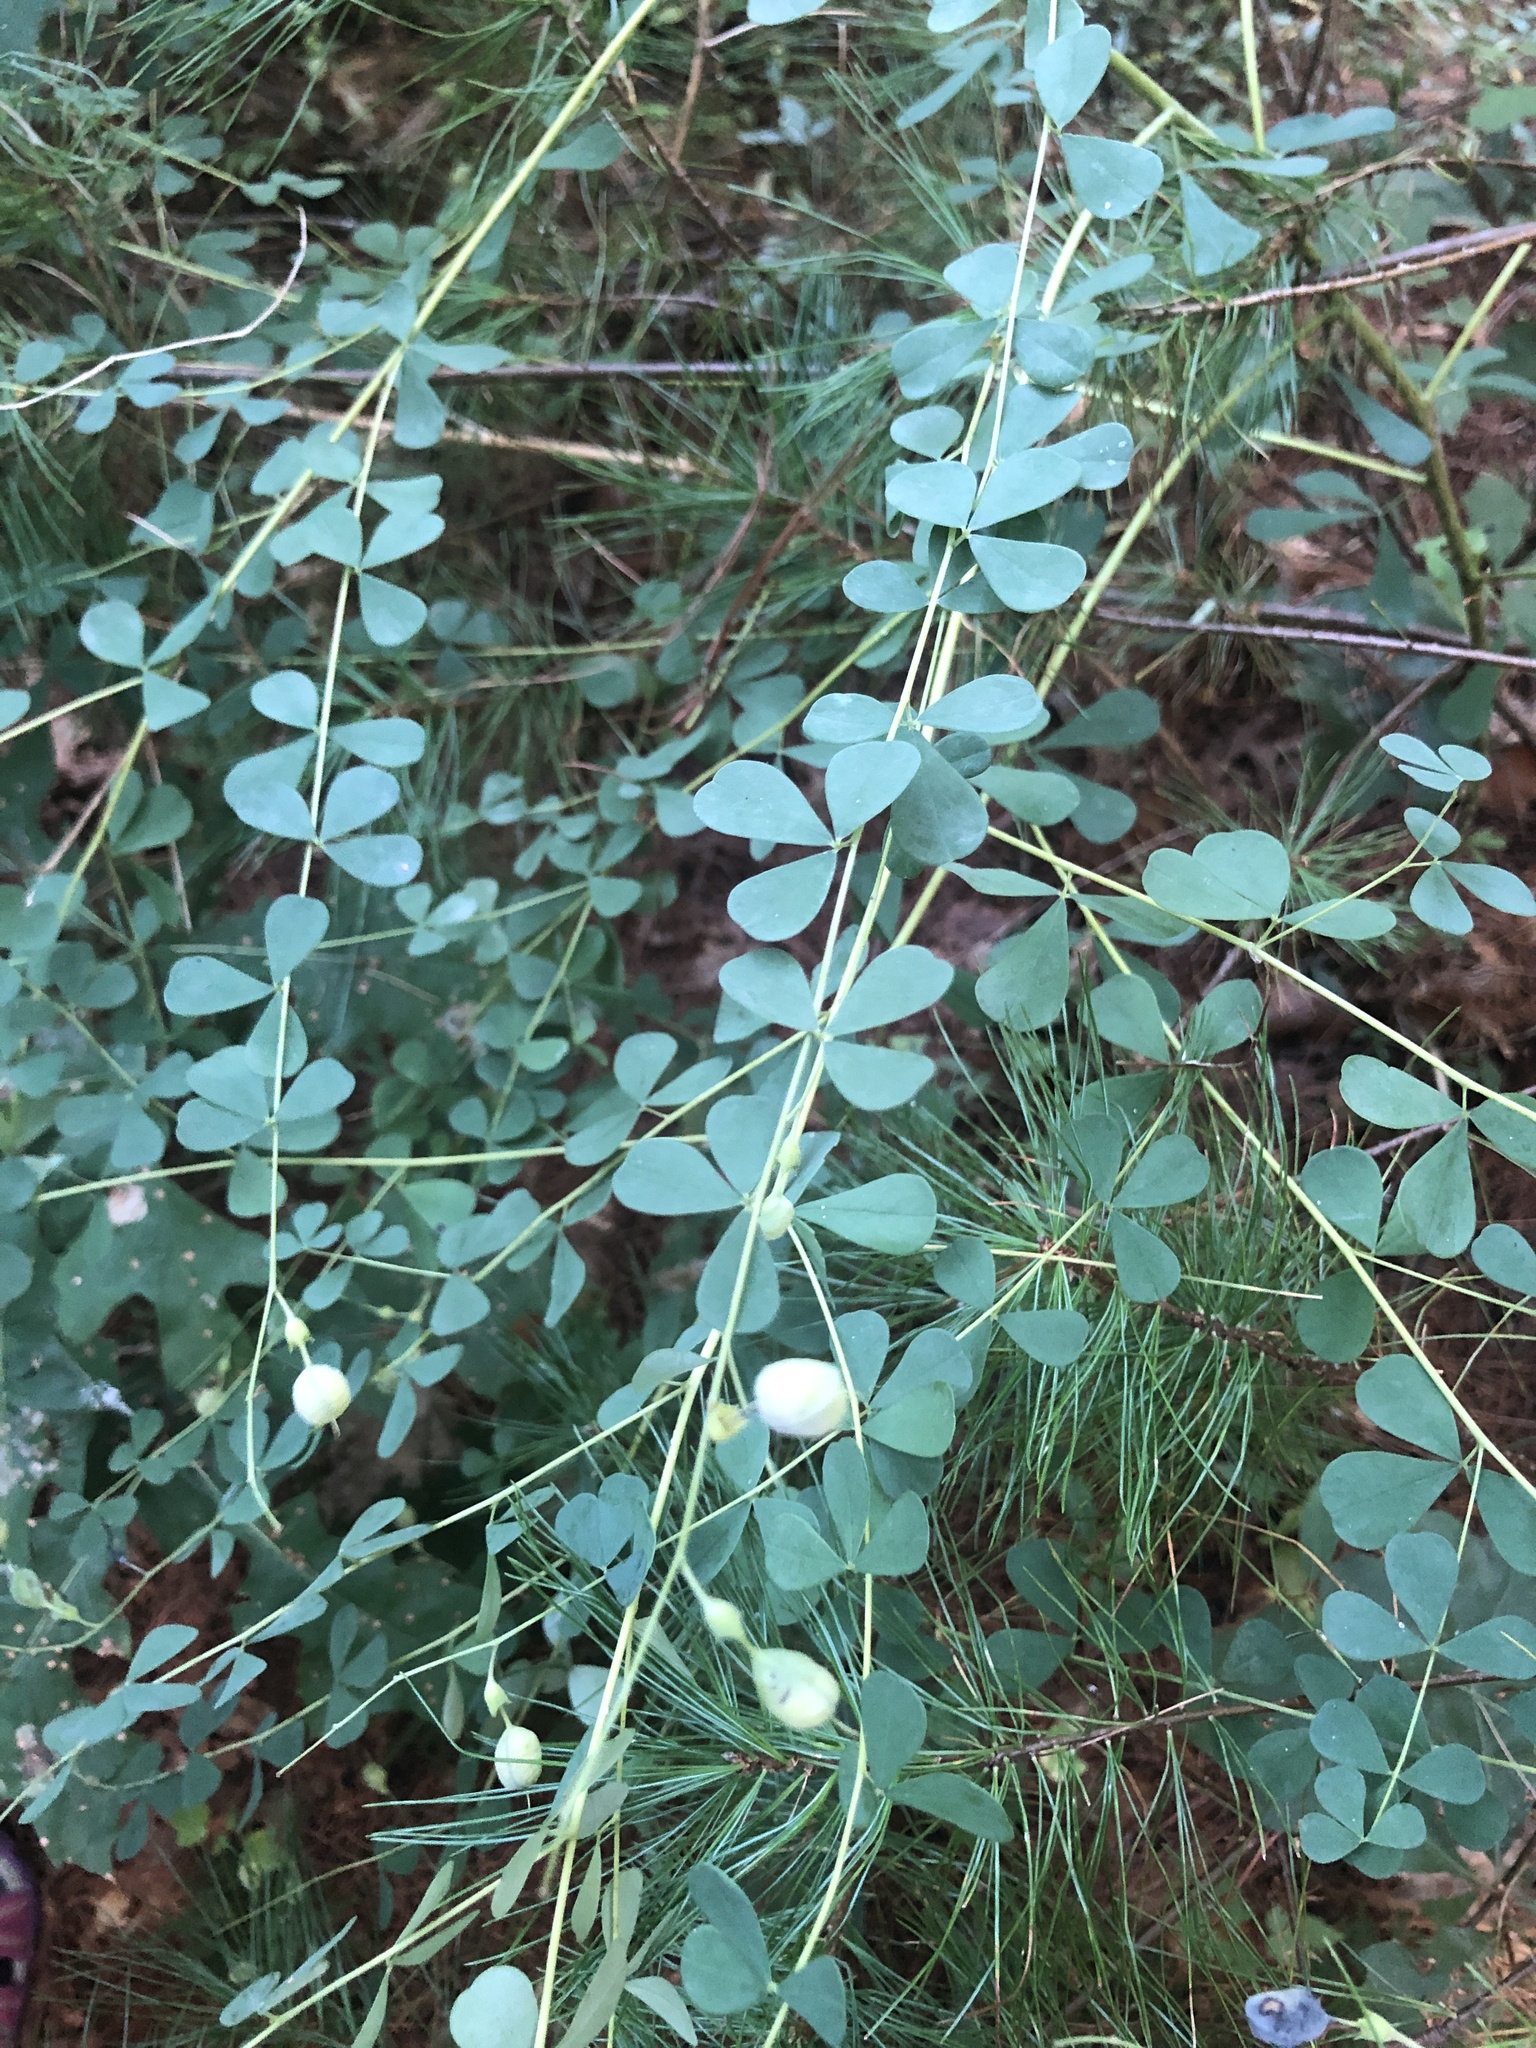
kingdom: Plantae
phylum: Tracheophyta
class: Magnoliopsida
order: Fabales
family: Fabaceae
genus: Baptisia
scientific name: Baptisia tinctoria
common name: Wild indigo
